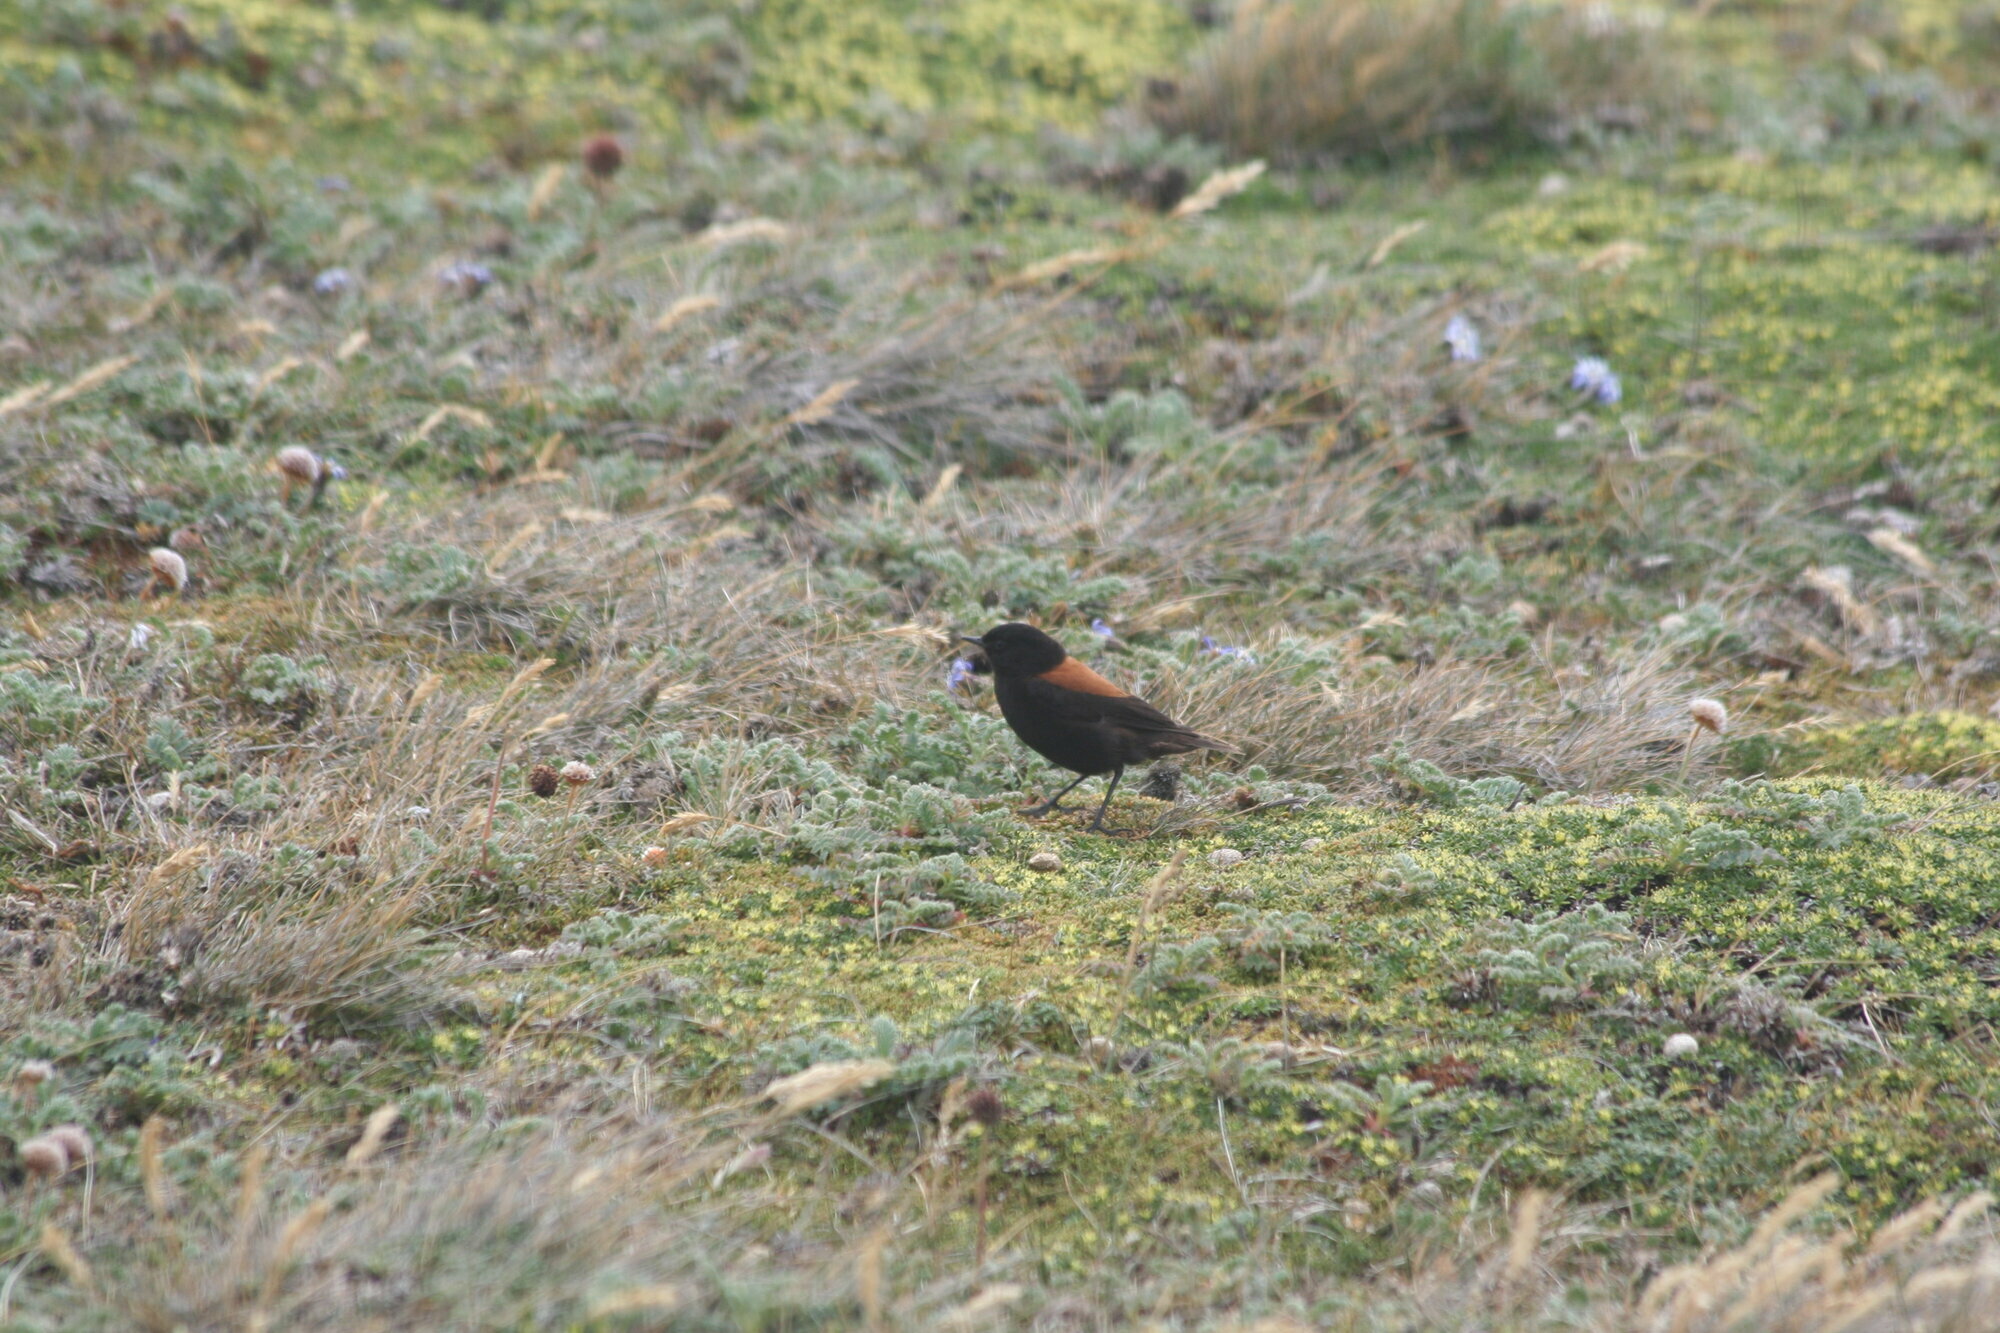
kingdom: Animalia
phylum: Chordata
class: Aves
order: Passeriformes
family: Tyrannidae
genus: Lessonia
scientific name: Lessonia rufa
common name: Austral negrito
